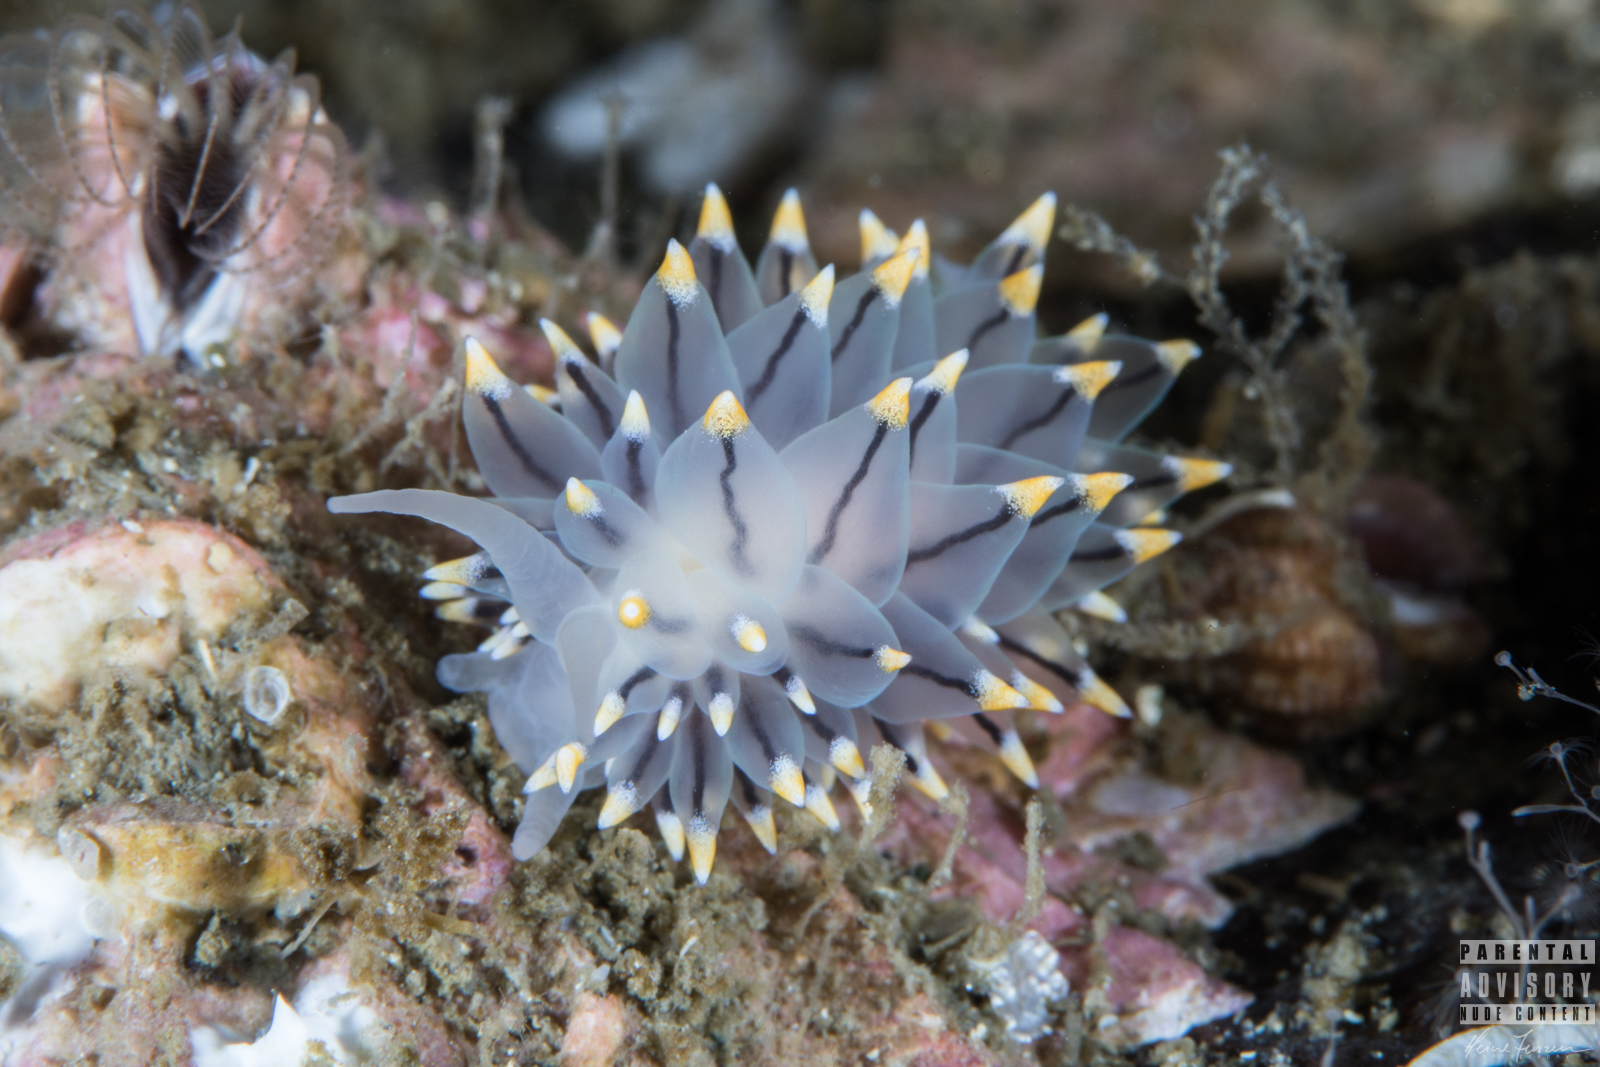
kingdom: Animalia
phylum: Mollusca
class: Gastropoda
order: Nudibranchia
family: Eubranchidae
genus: Eubranchus
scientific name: Eubranchus tricolor
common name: Painted balloon aeolis
